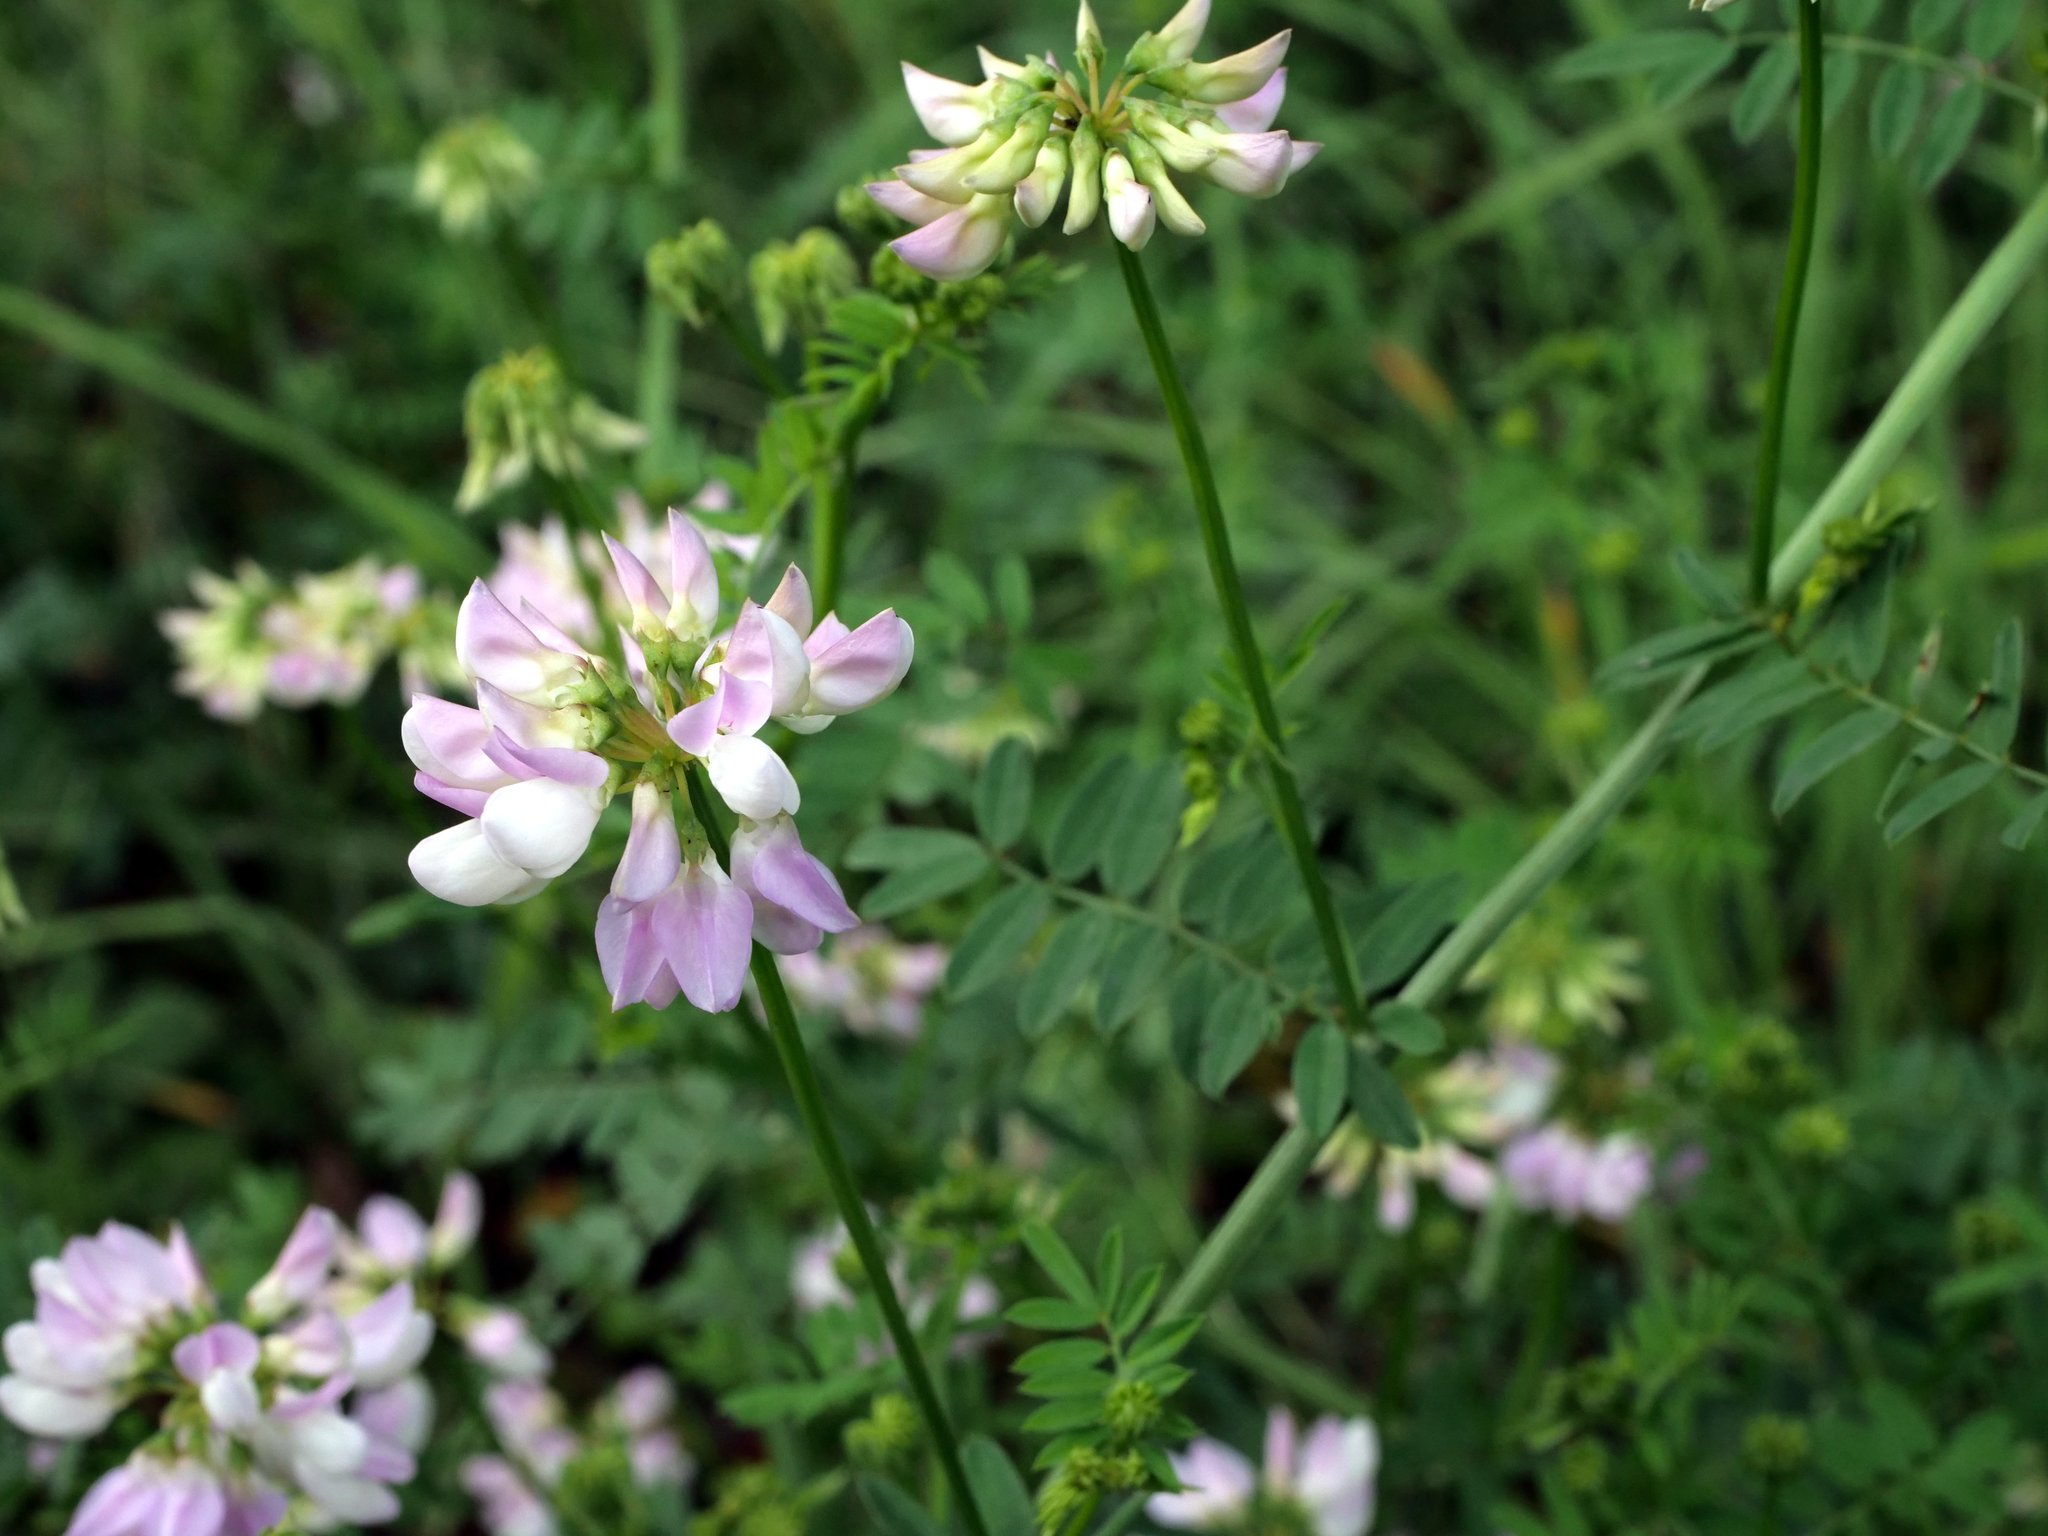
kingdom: Plantae
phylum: Tracheophyta
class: Magnoliopsida
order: Fabales
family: Fabaceae
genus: Coronilla
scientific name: Coronilla varia
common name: Crownvetch
